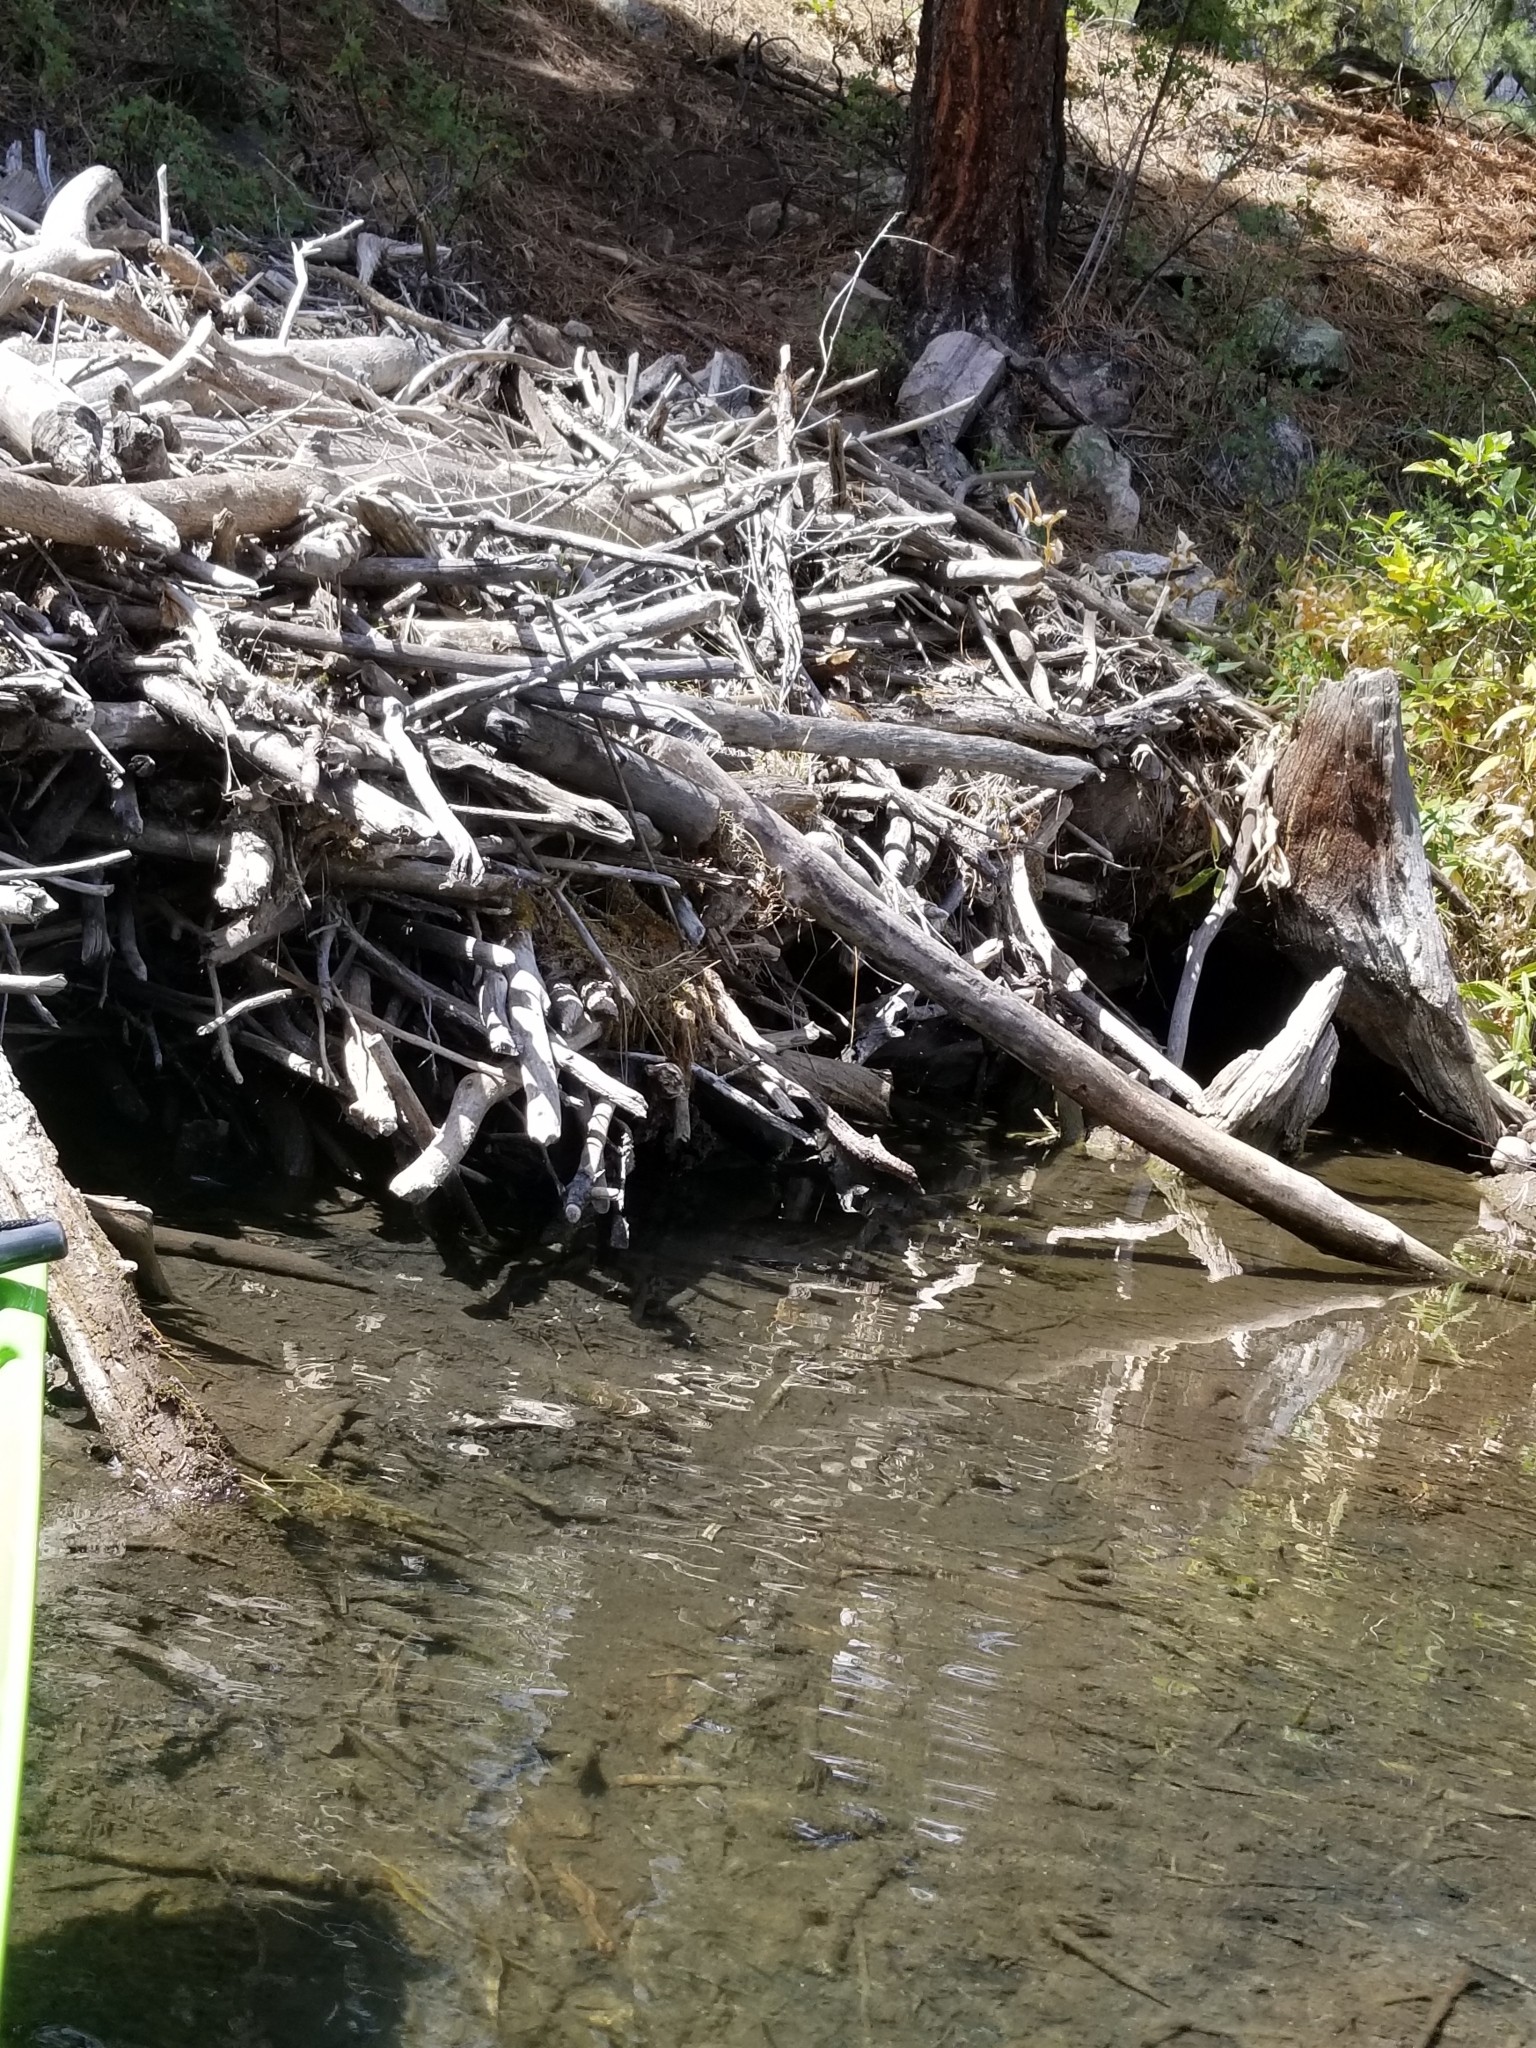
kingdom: Animalia
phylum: Chordata
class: Mammalia
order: Rodentia
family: Castoridae
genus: Castor
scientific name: Castor canadensis
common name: American beaver
